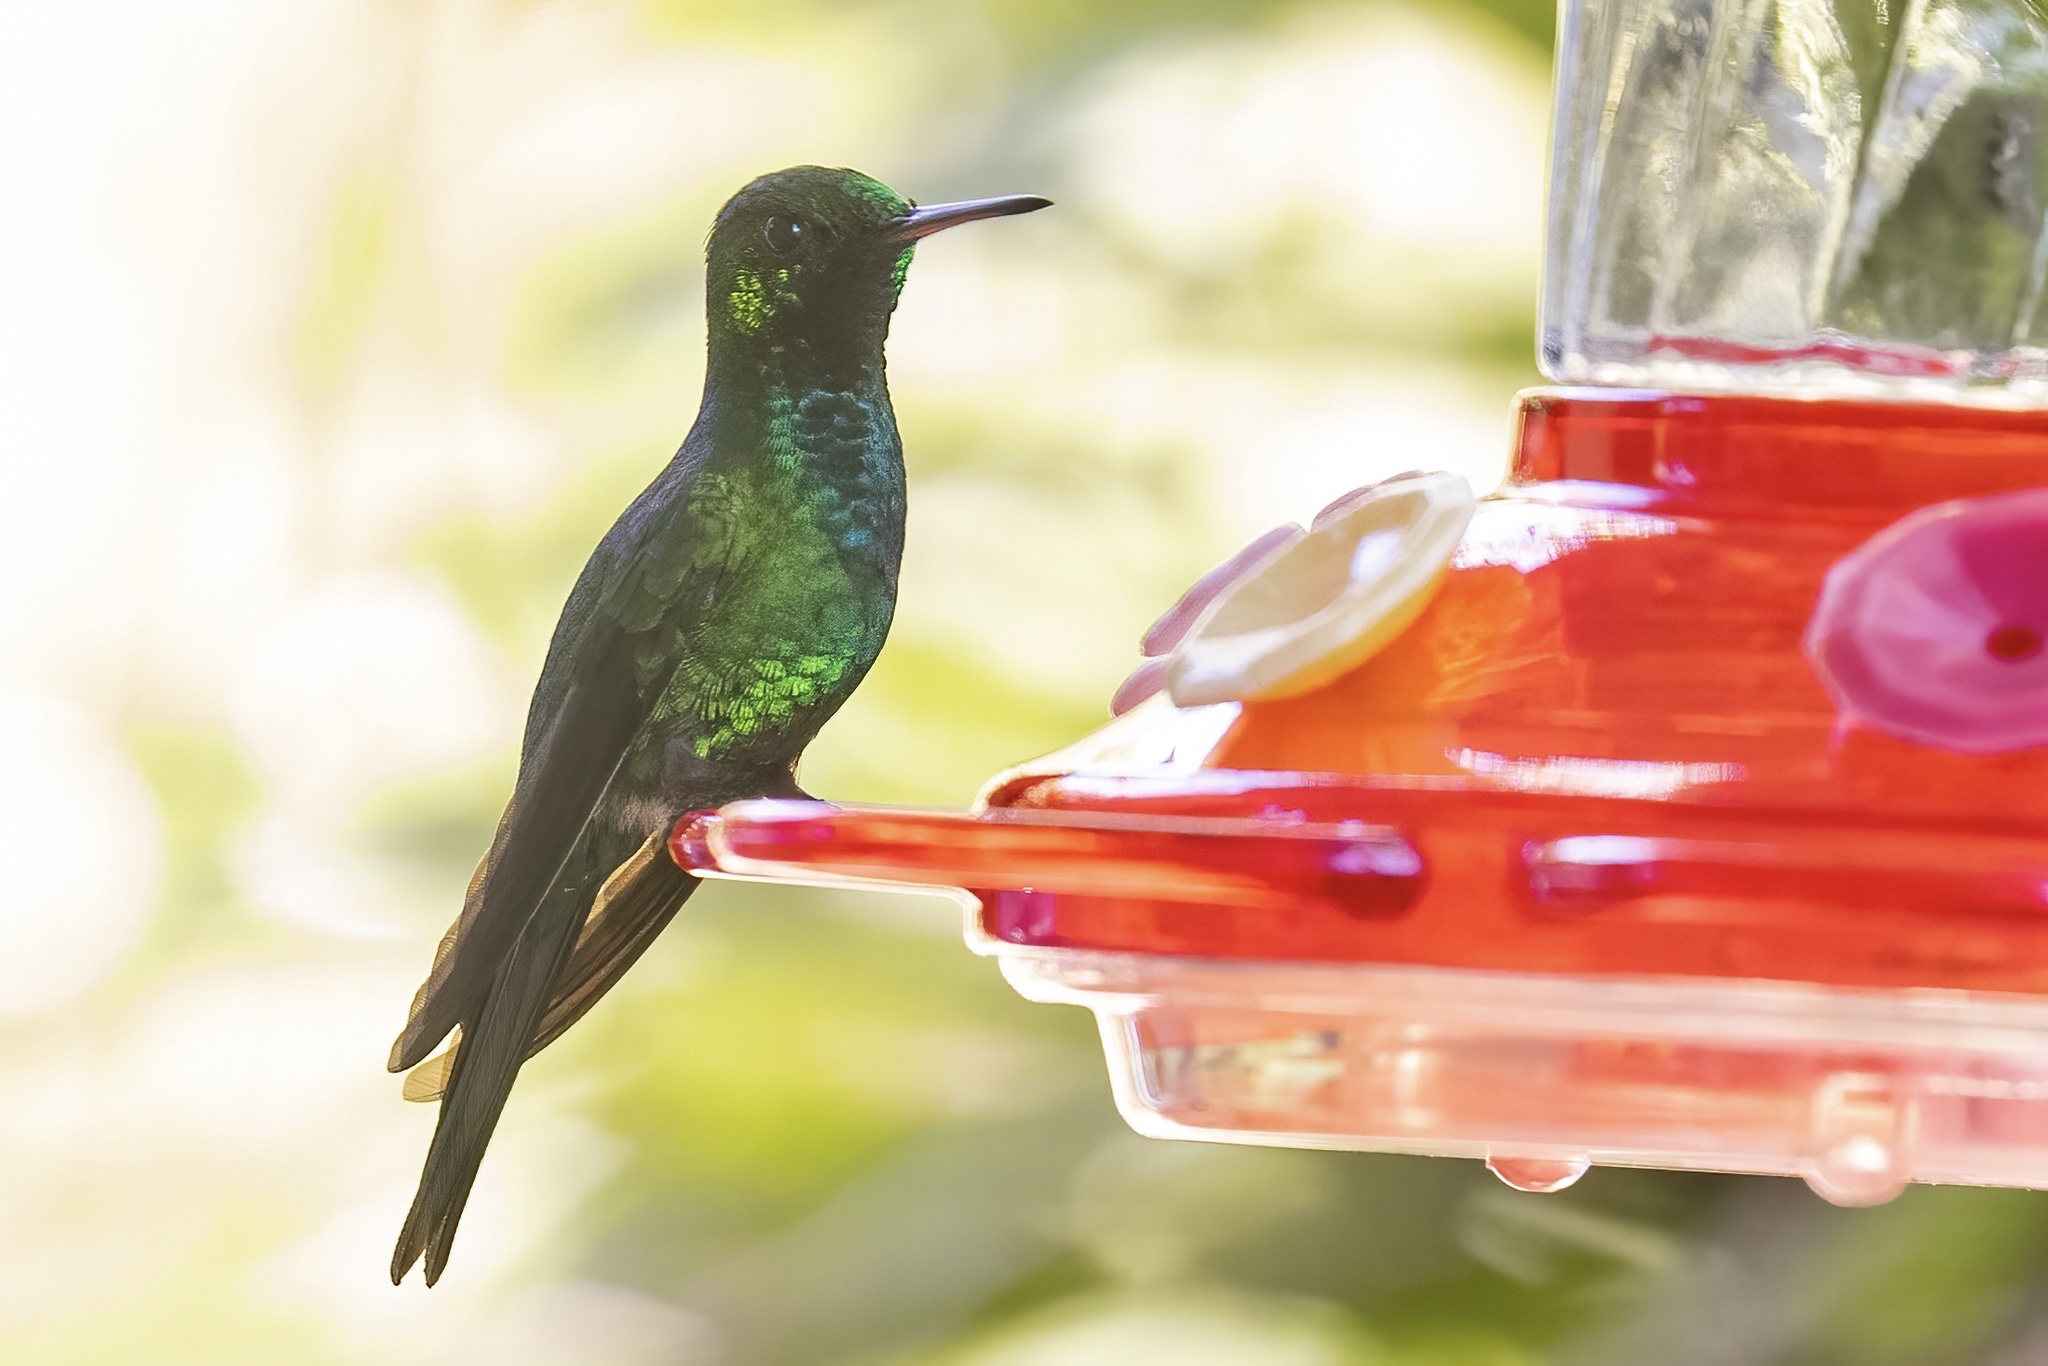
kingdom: Animalia
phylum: Chordata
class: Aves
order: Apodiformes
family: Trochilidae
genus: Riccordia
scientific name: Riccordia maugaeus
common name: Puerto rican emerald
